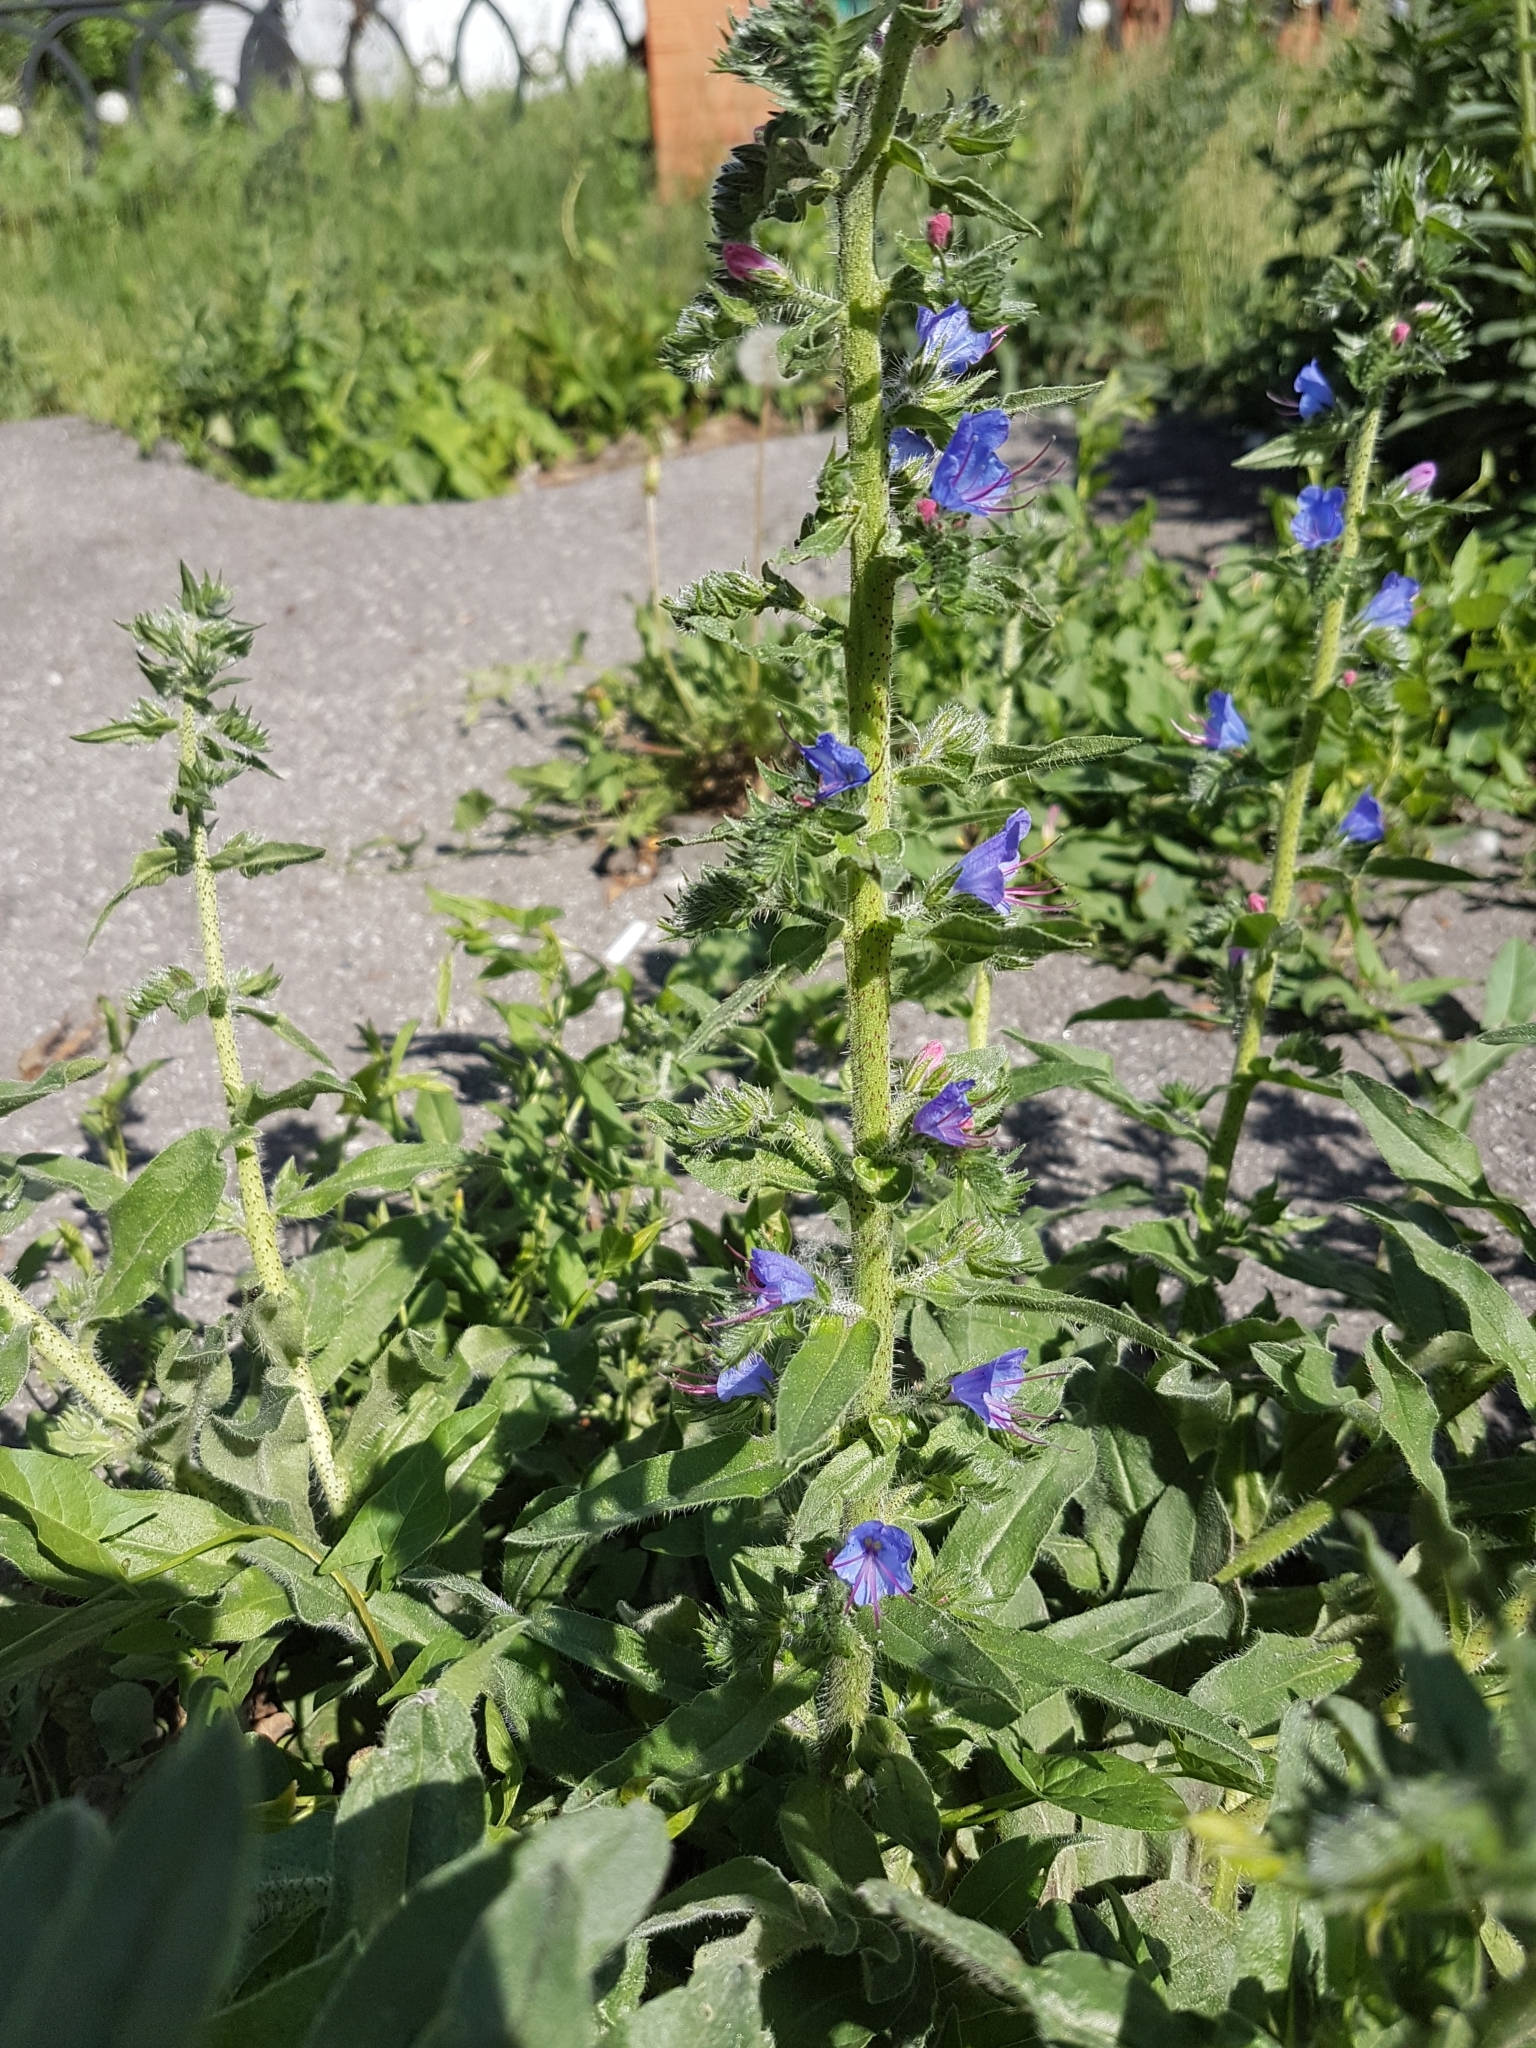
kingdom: Plantae
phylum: Tracheophyta
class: Magnoliopsida
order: Boraginales
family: Boraginaceae
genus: Echium
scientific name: Echium vulgare
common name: Common viper's bugloss
